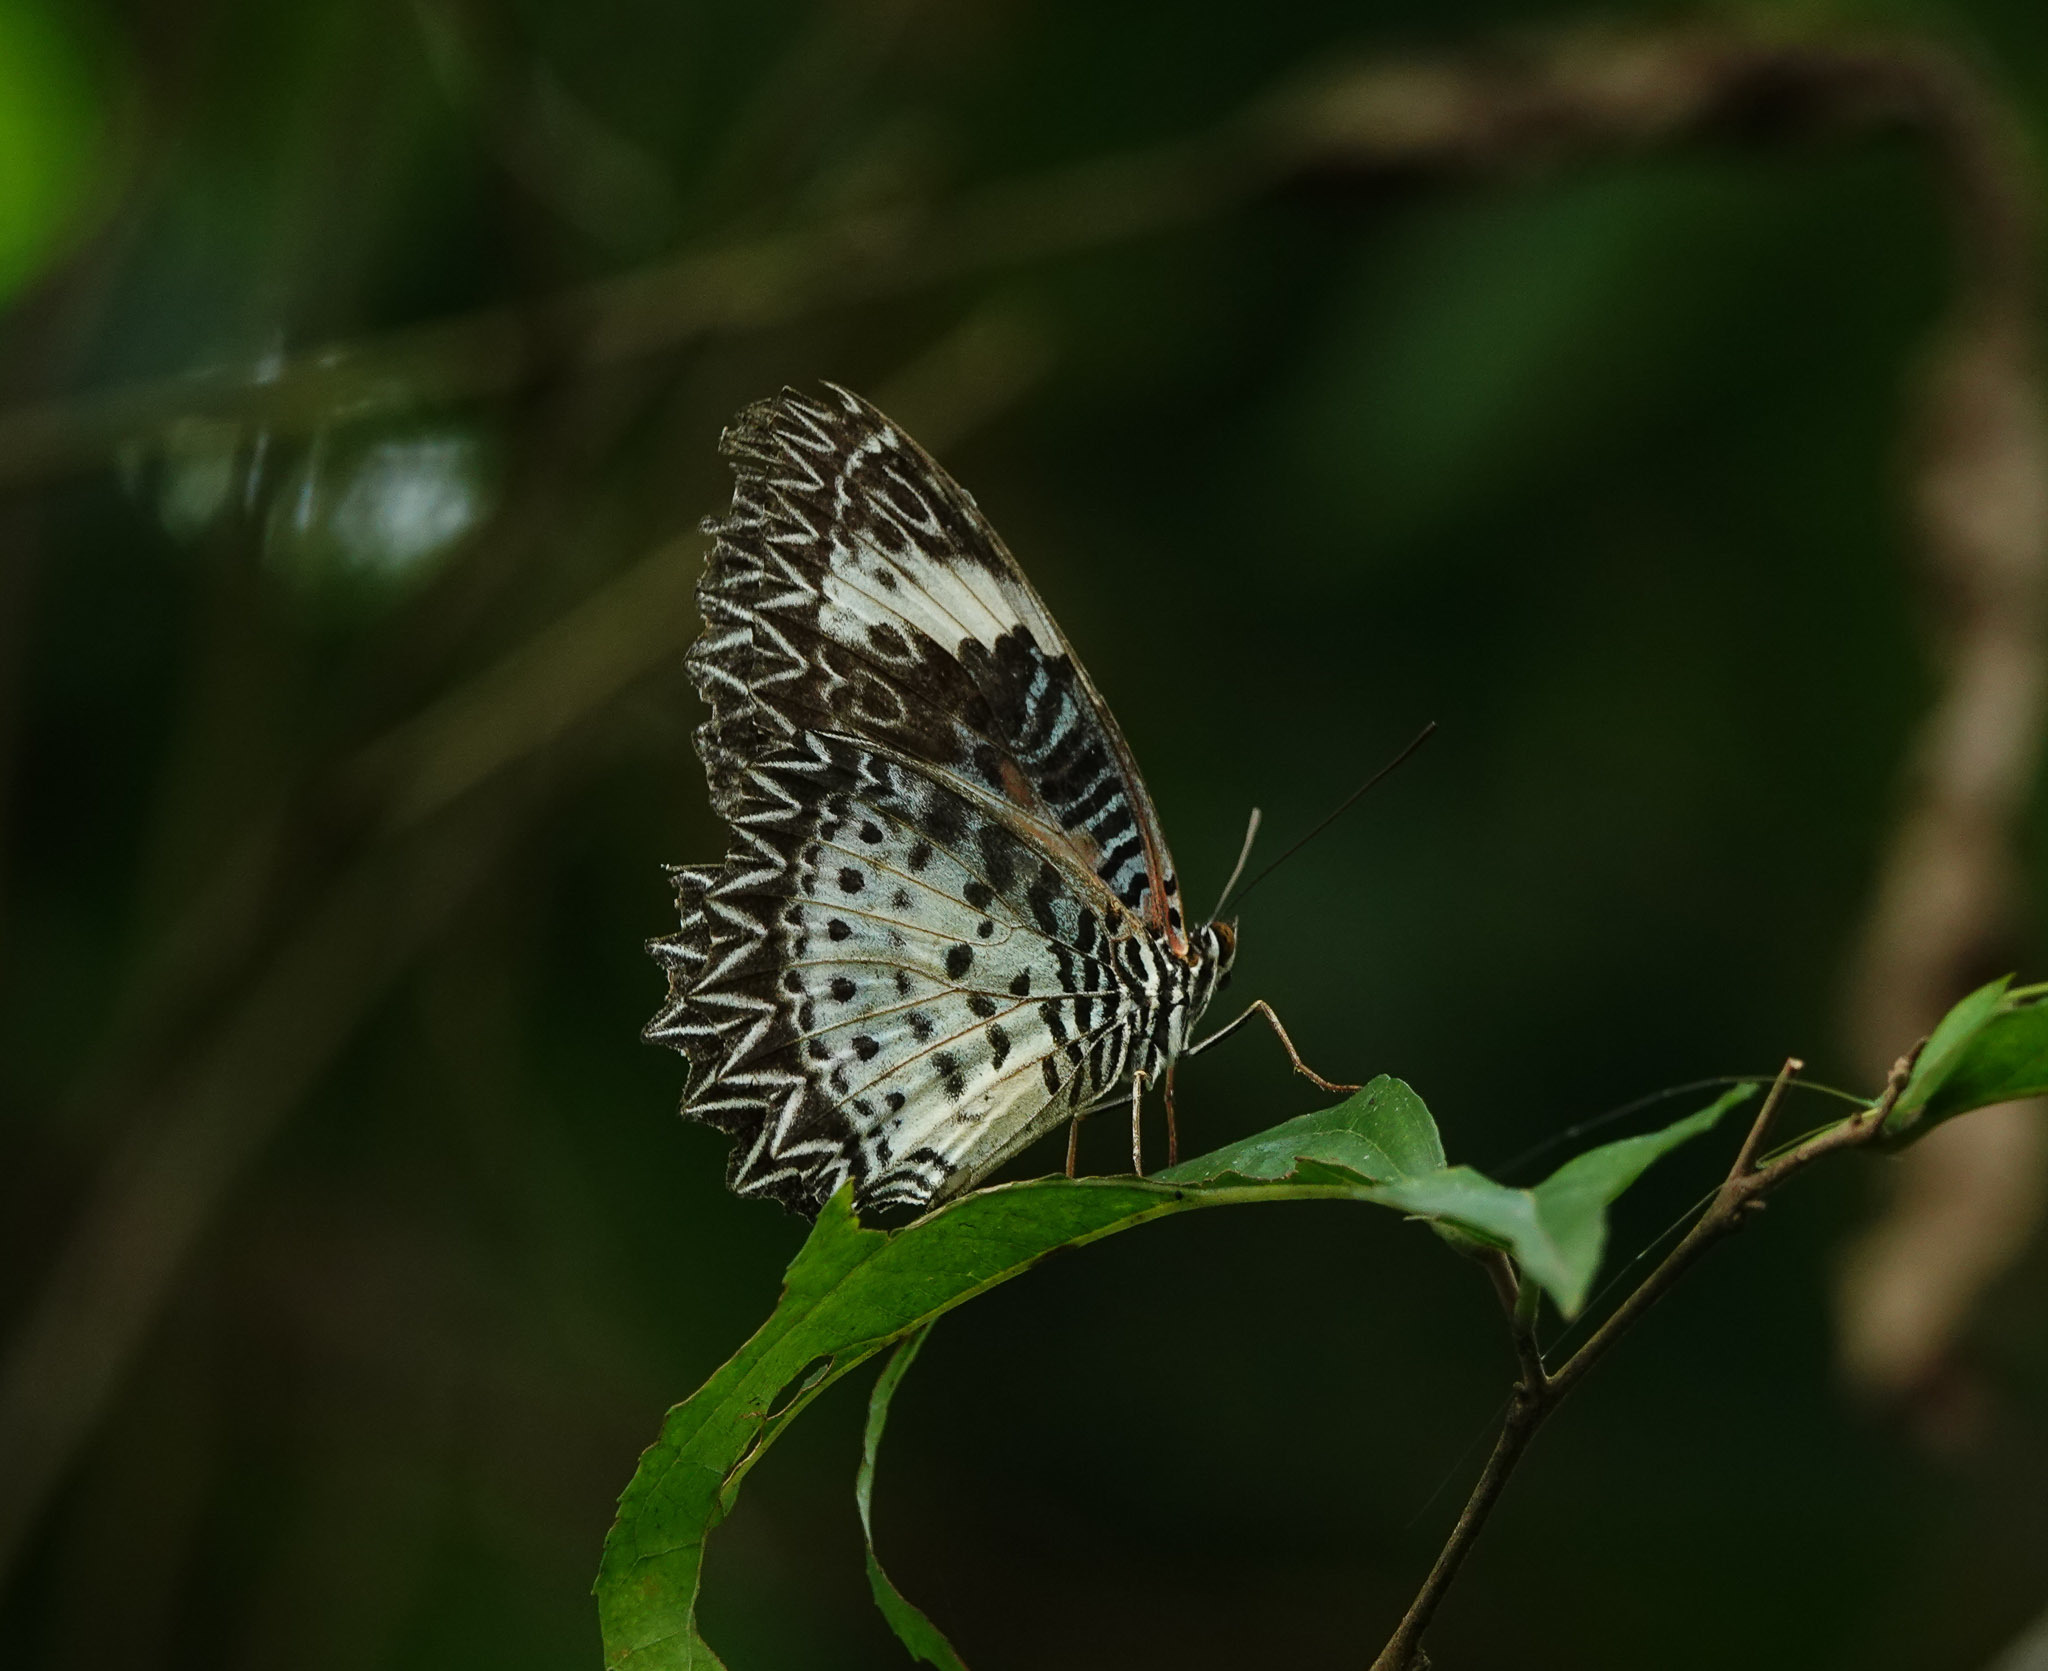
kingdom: Animalia
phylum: Arthropoda
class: Insecta
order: Lepidoptera
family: Nymphalidae
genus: Cethosia
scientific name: Cethosia cyane
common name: Leopard lacewing butterfly
